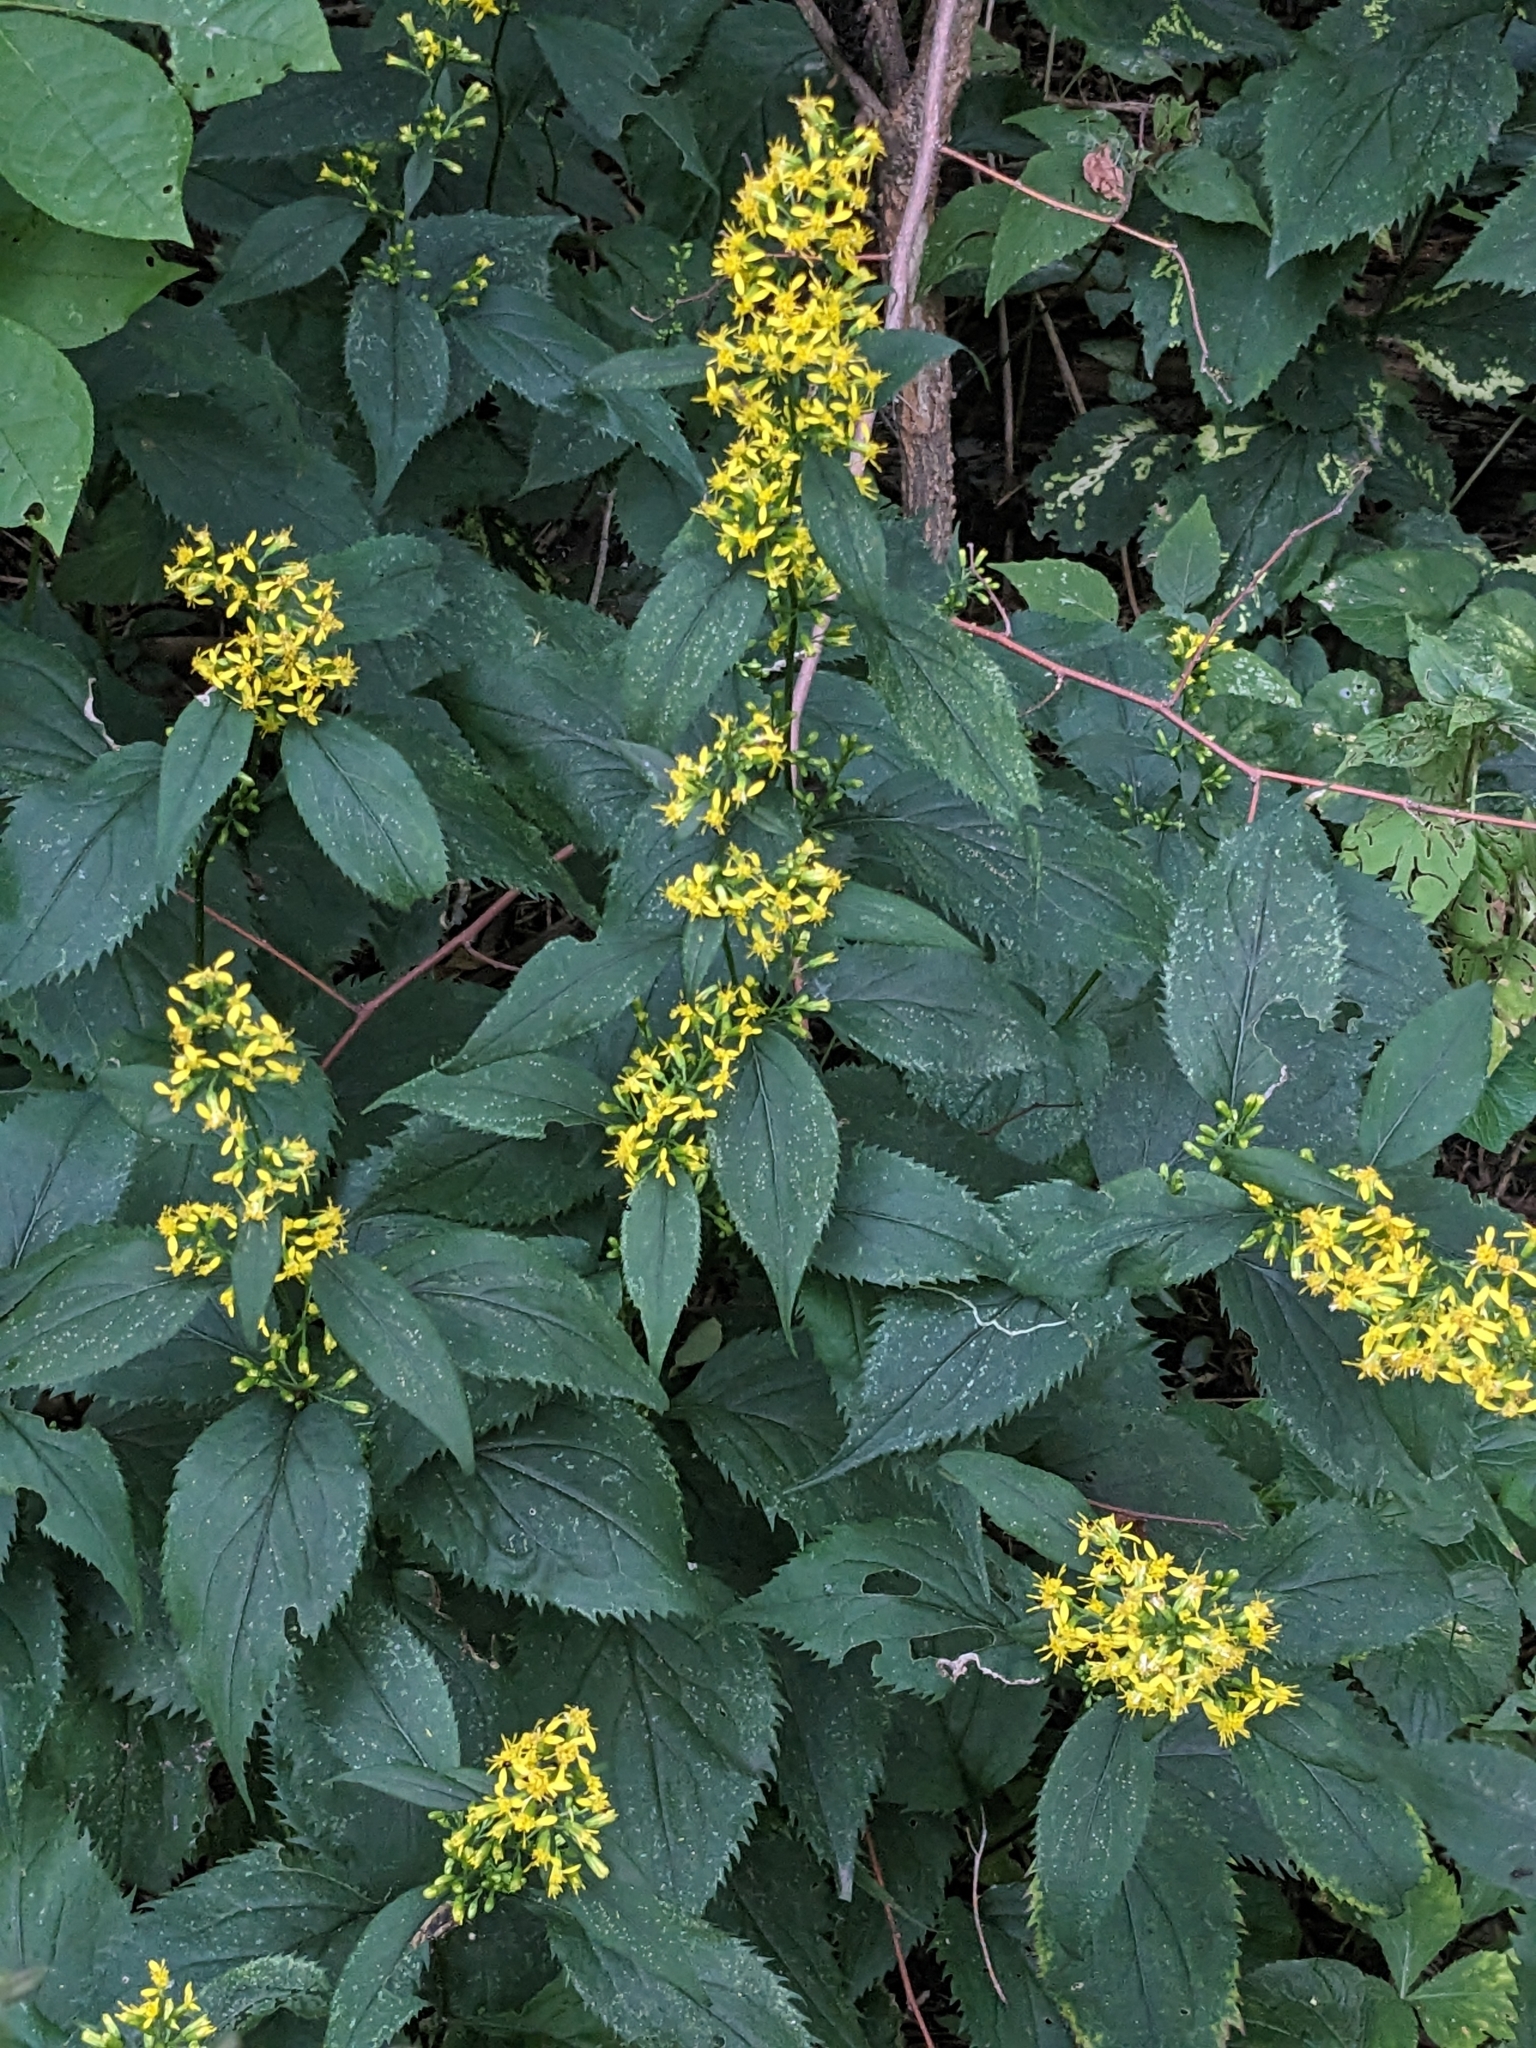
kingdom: Plantae
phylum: Tracheophyta
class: Magnoliopsida
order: Asterales
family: Asteraceae
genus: Solidago
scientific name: Solidago flexicaulis
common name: Zig-zag goldenrod
